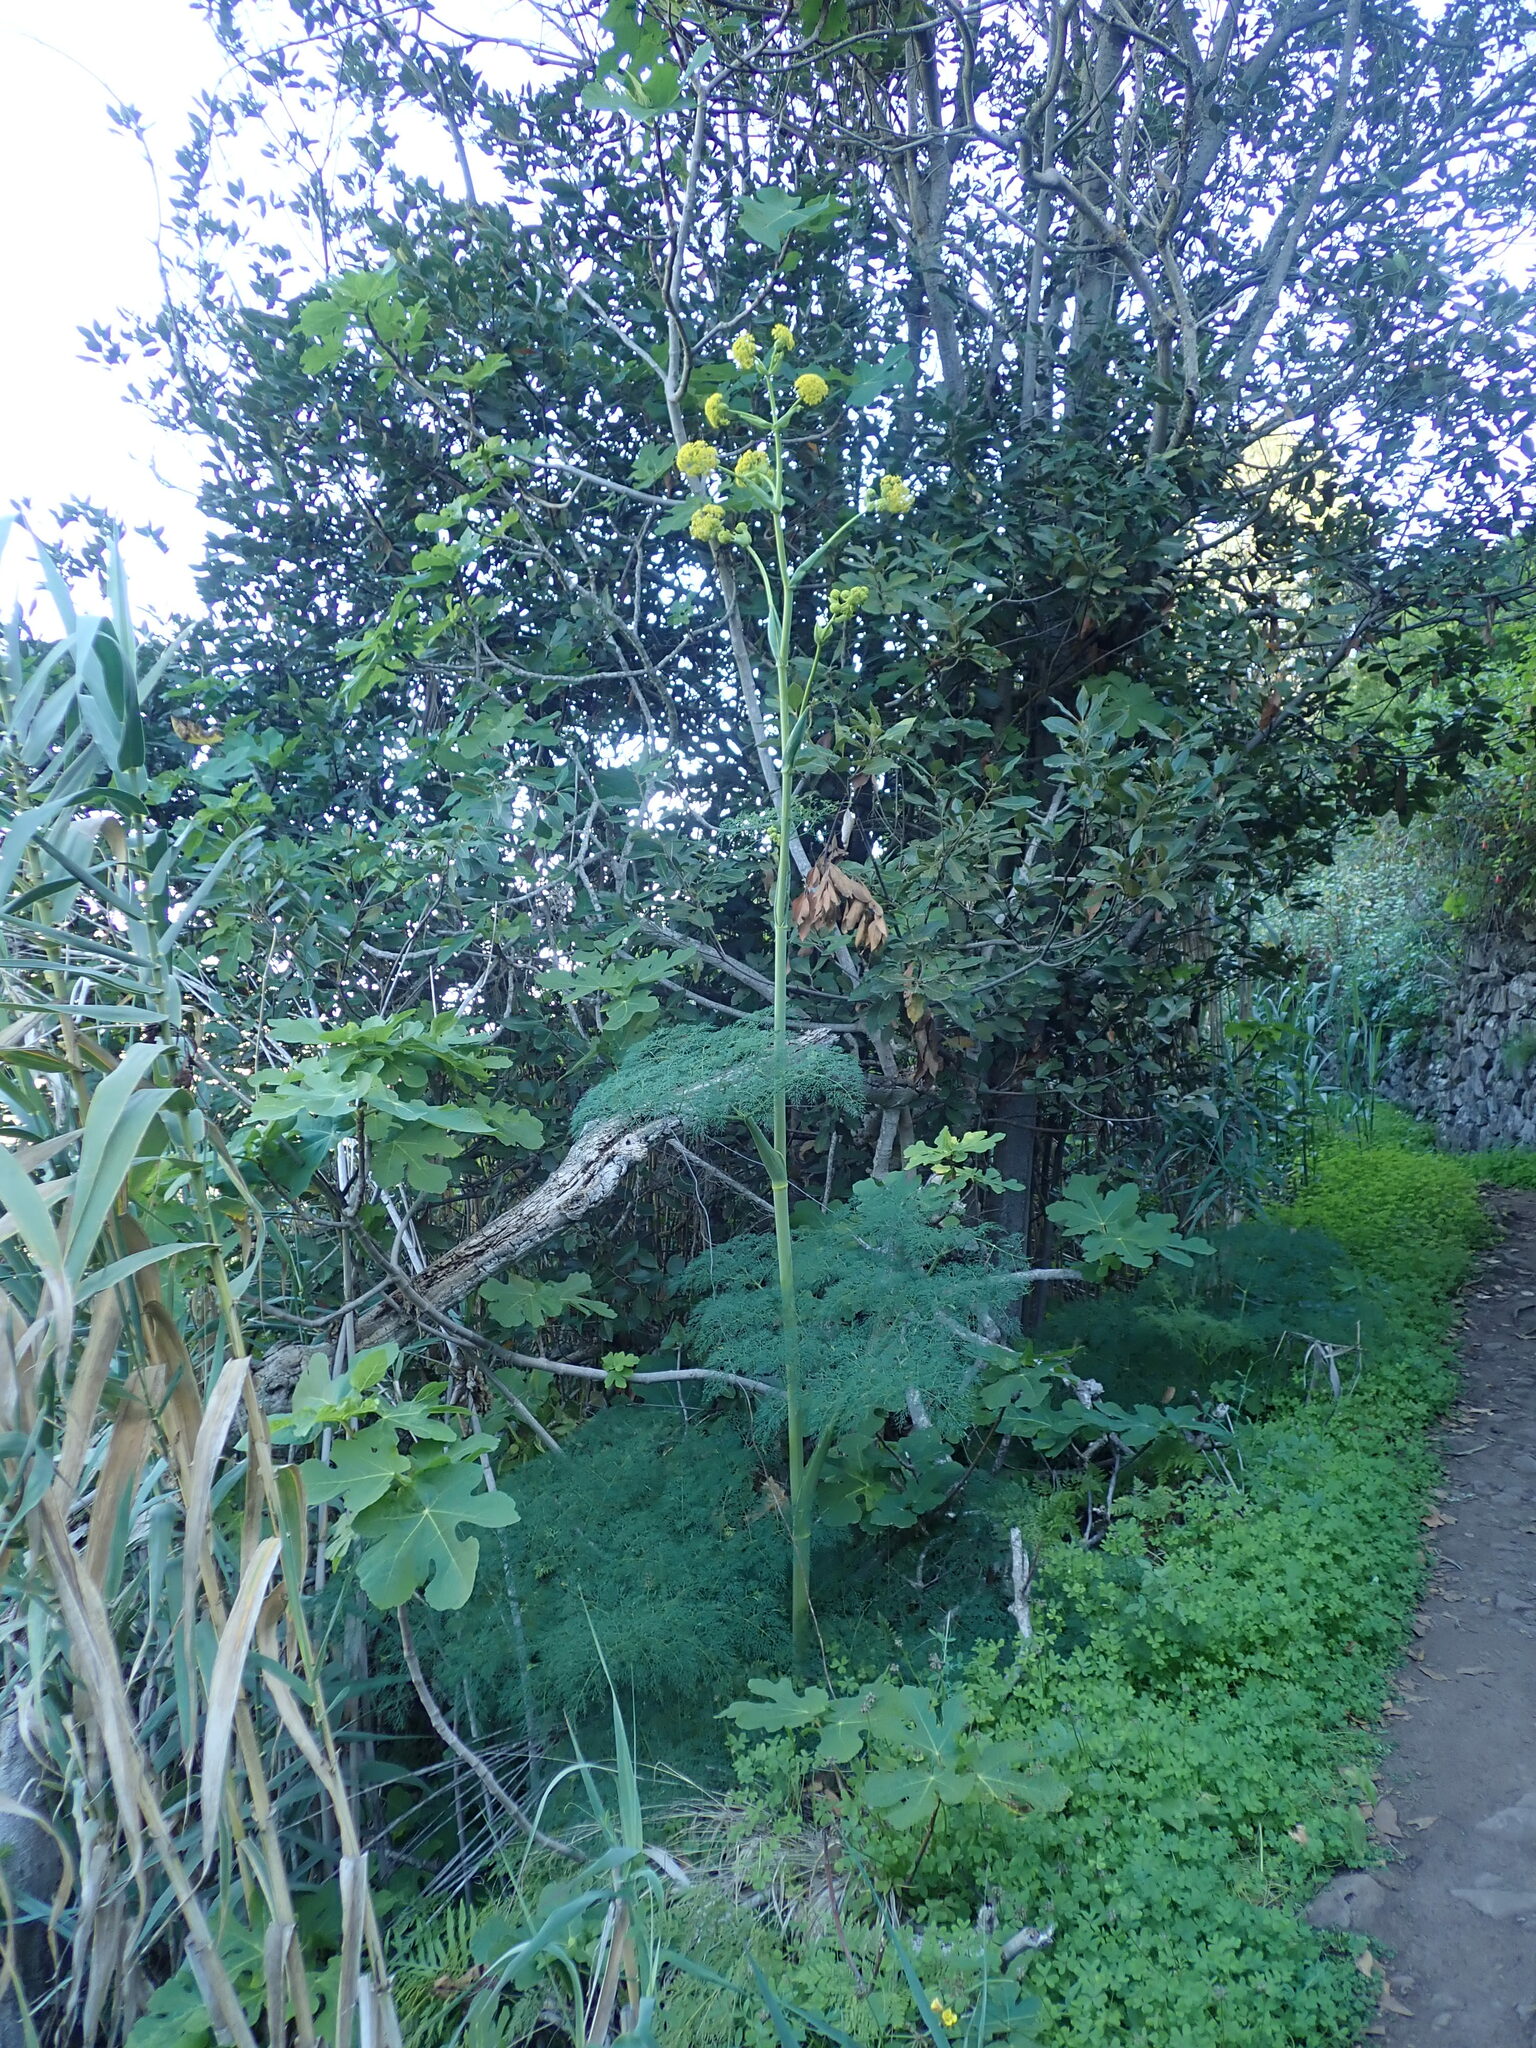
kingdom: Plantae
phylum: Tracheophyta
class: Magnoliopsida
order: Apiales
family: Apiaceae
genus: Ferula
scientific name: Ferula communis
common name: Giant fennel
